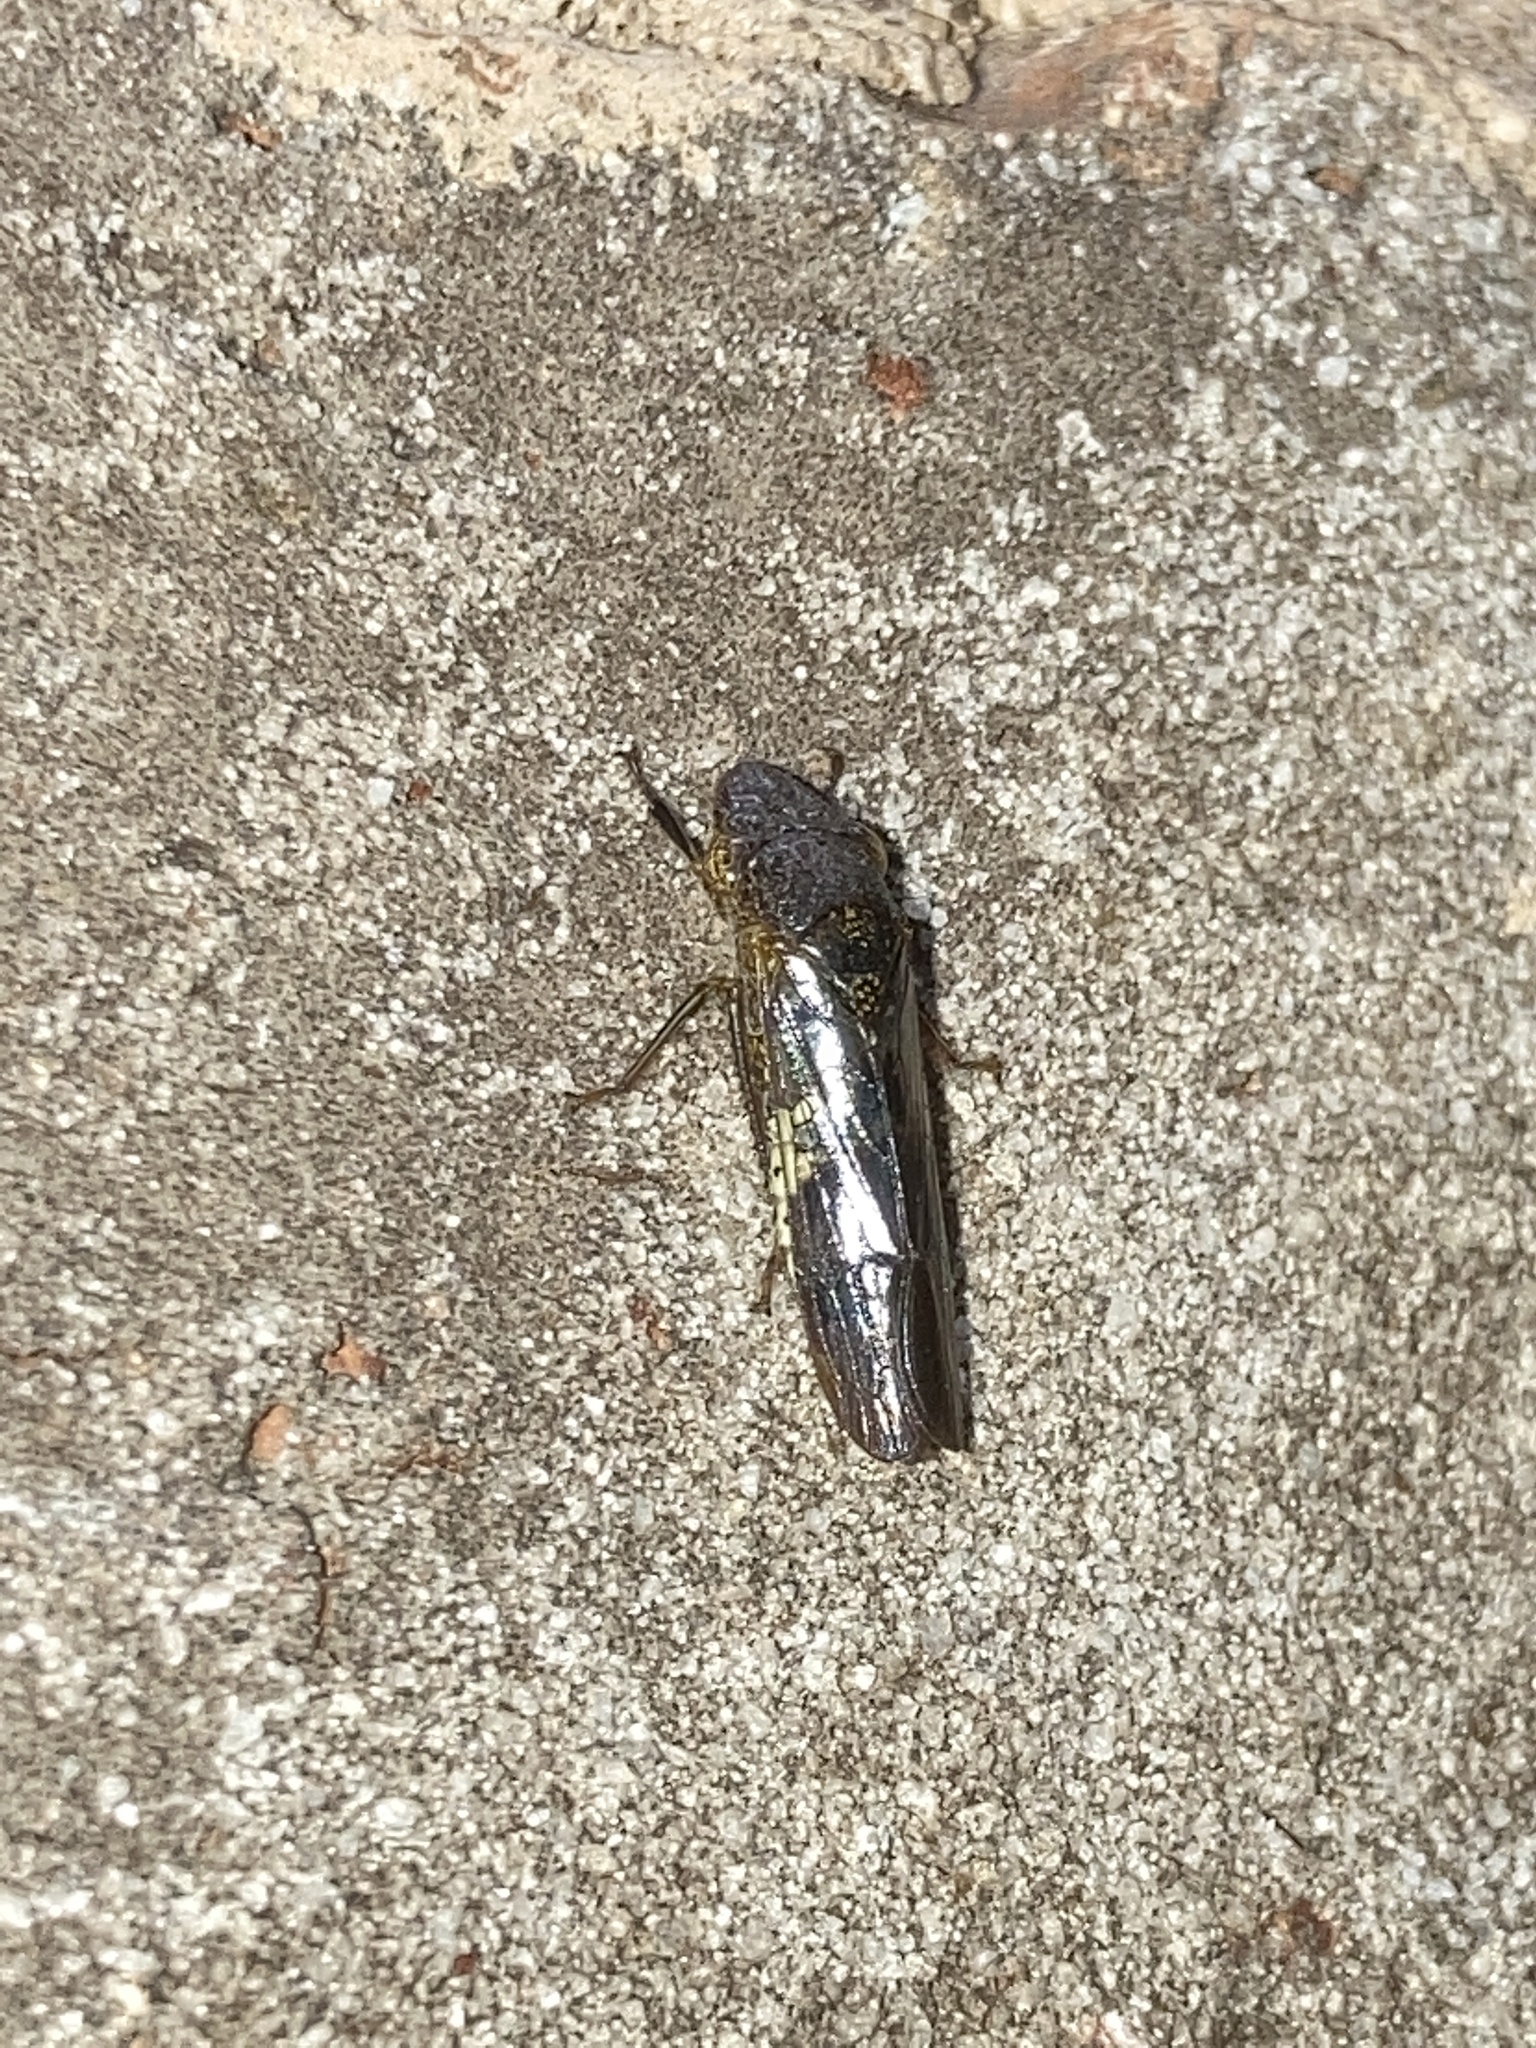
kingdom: Animalia
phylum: Arthropoda
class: Insecta
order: Hemiptera
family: Cicadellidae
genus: Homalodisca
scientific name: Homalodisca vitripennis
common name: Glassy-winged sharpshooter
